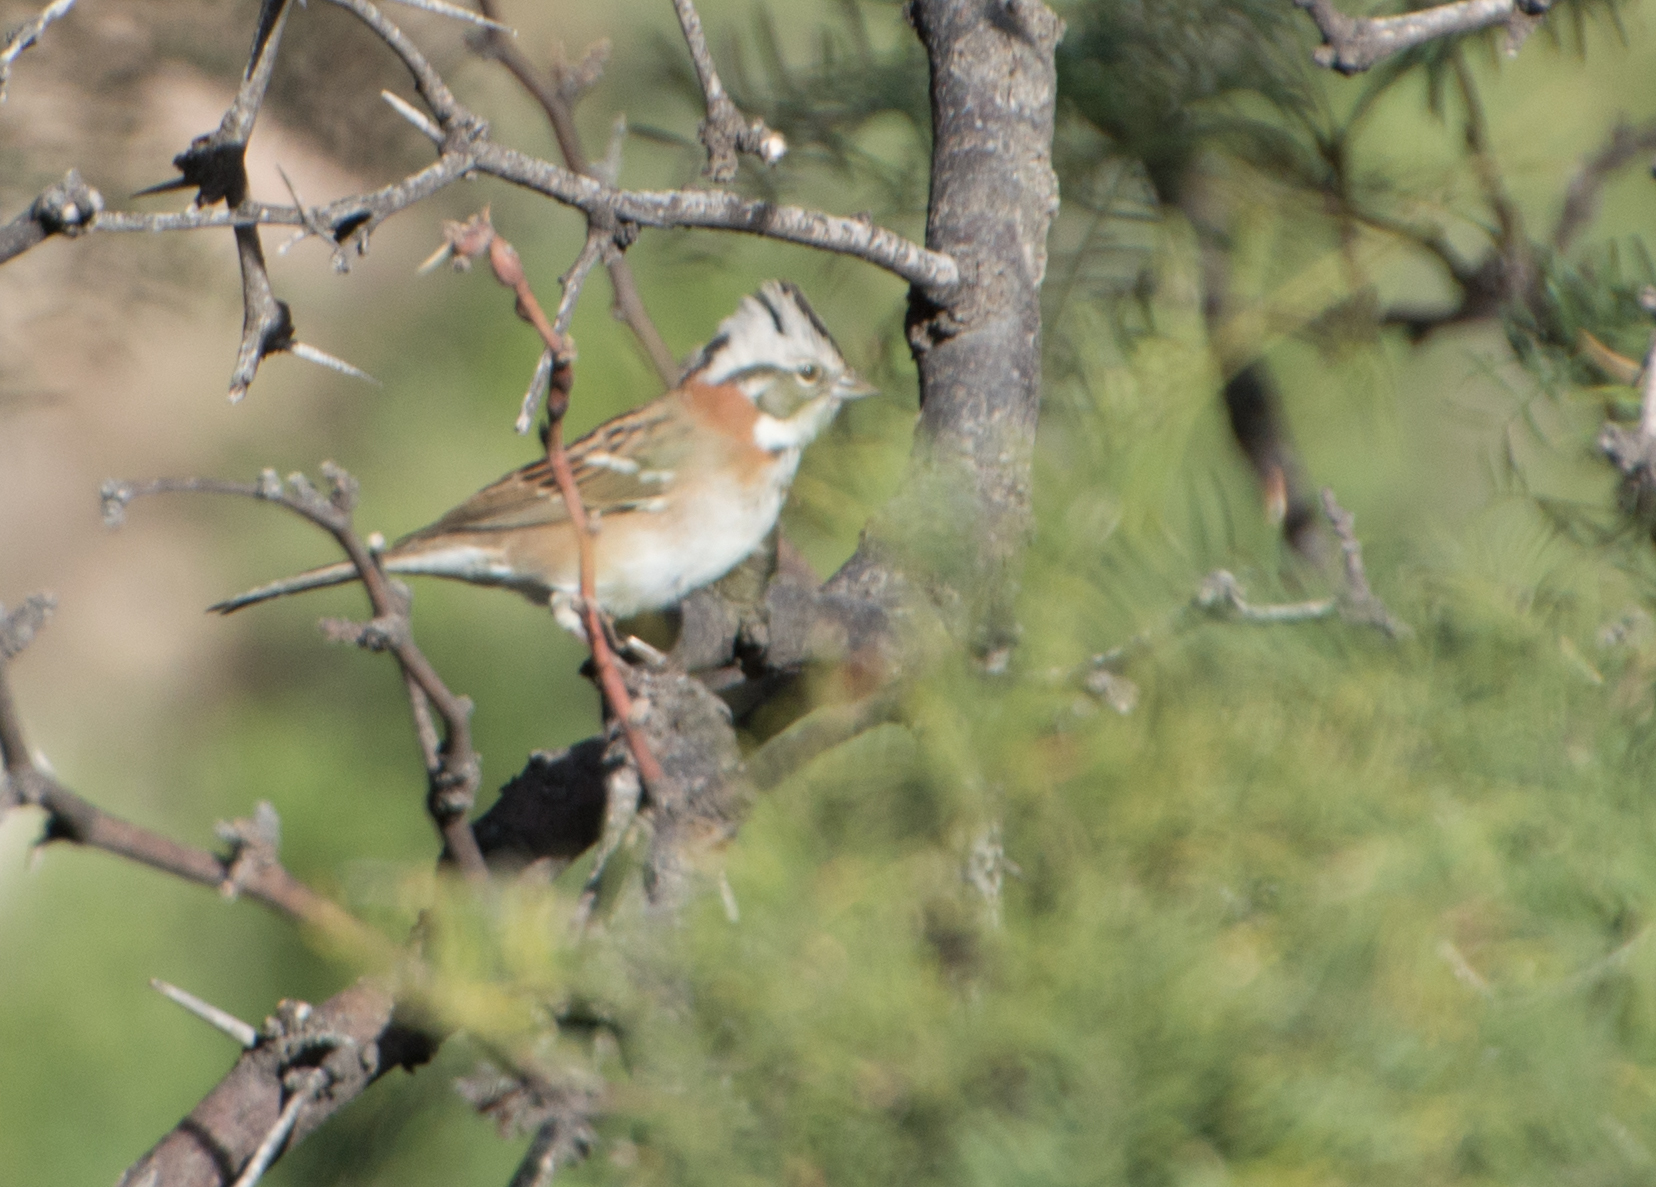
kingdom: Animalia
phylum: Chordata
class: Aves
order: Passeriformes
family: Passerellidae
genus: Zonotrichia
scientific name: Zonotrichia capensis
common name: Rufous-collared sparrow
